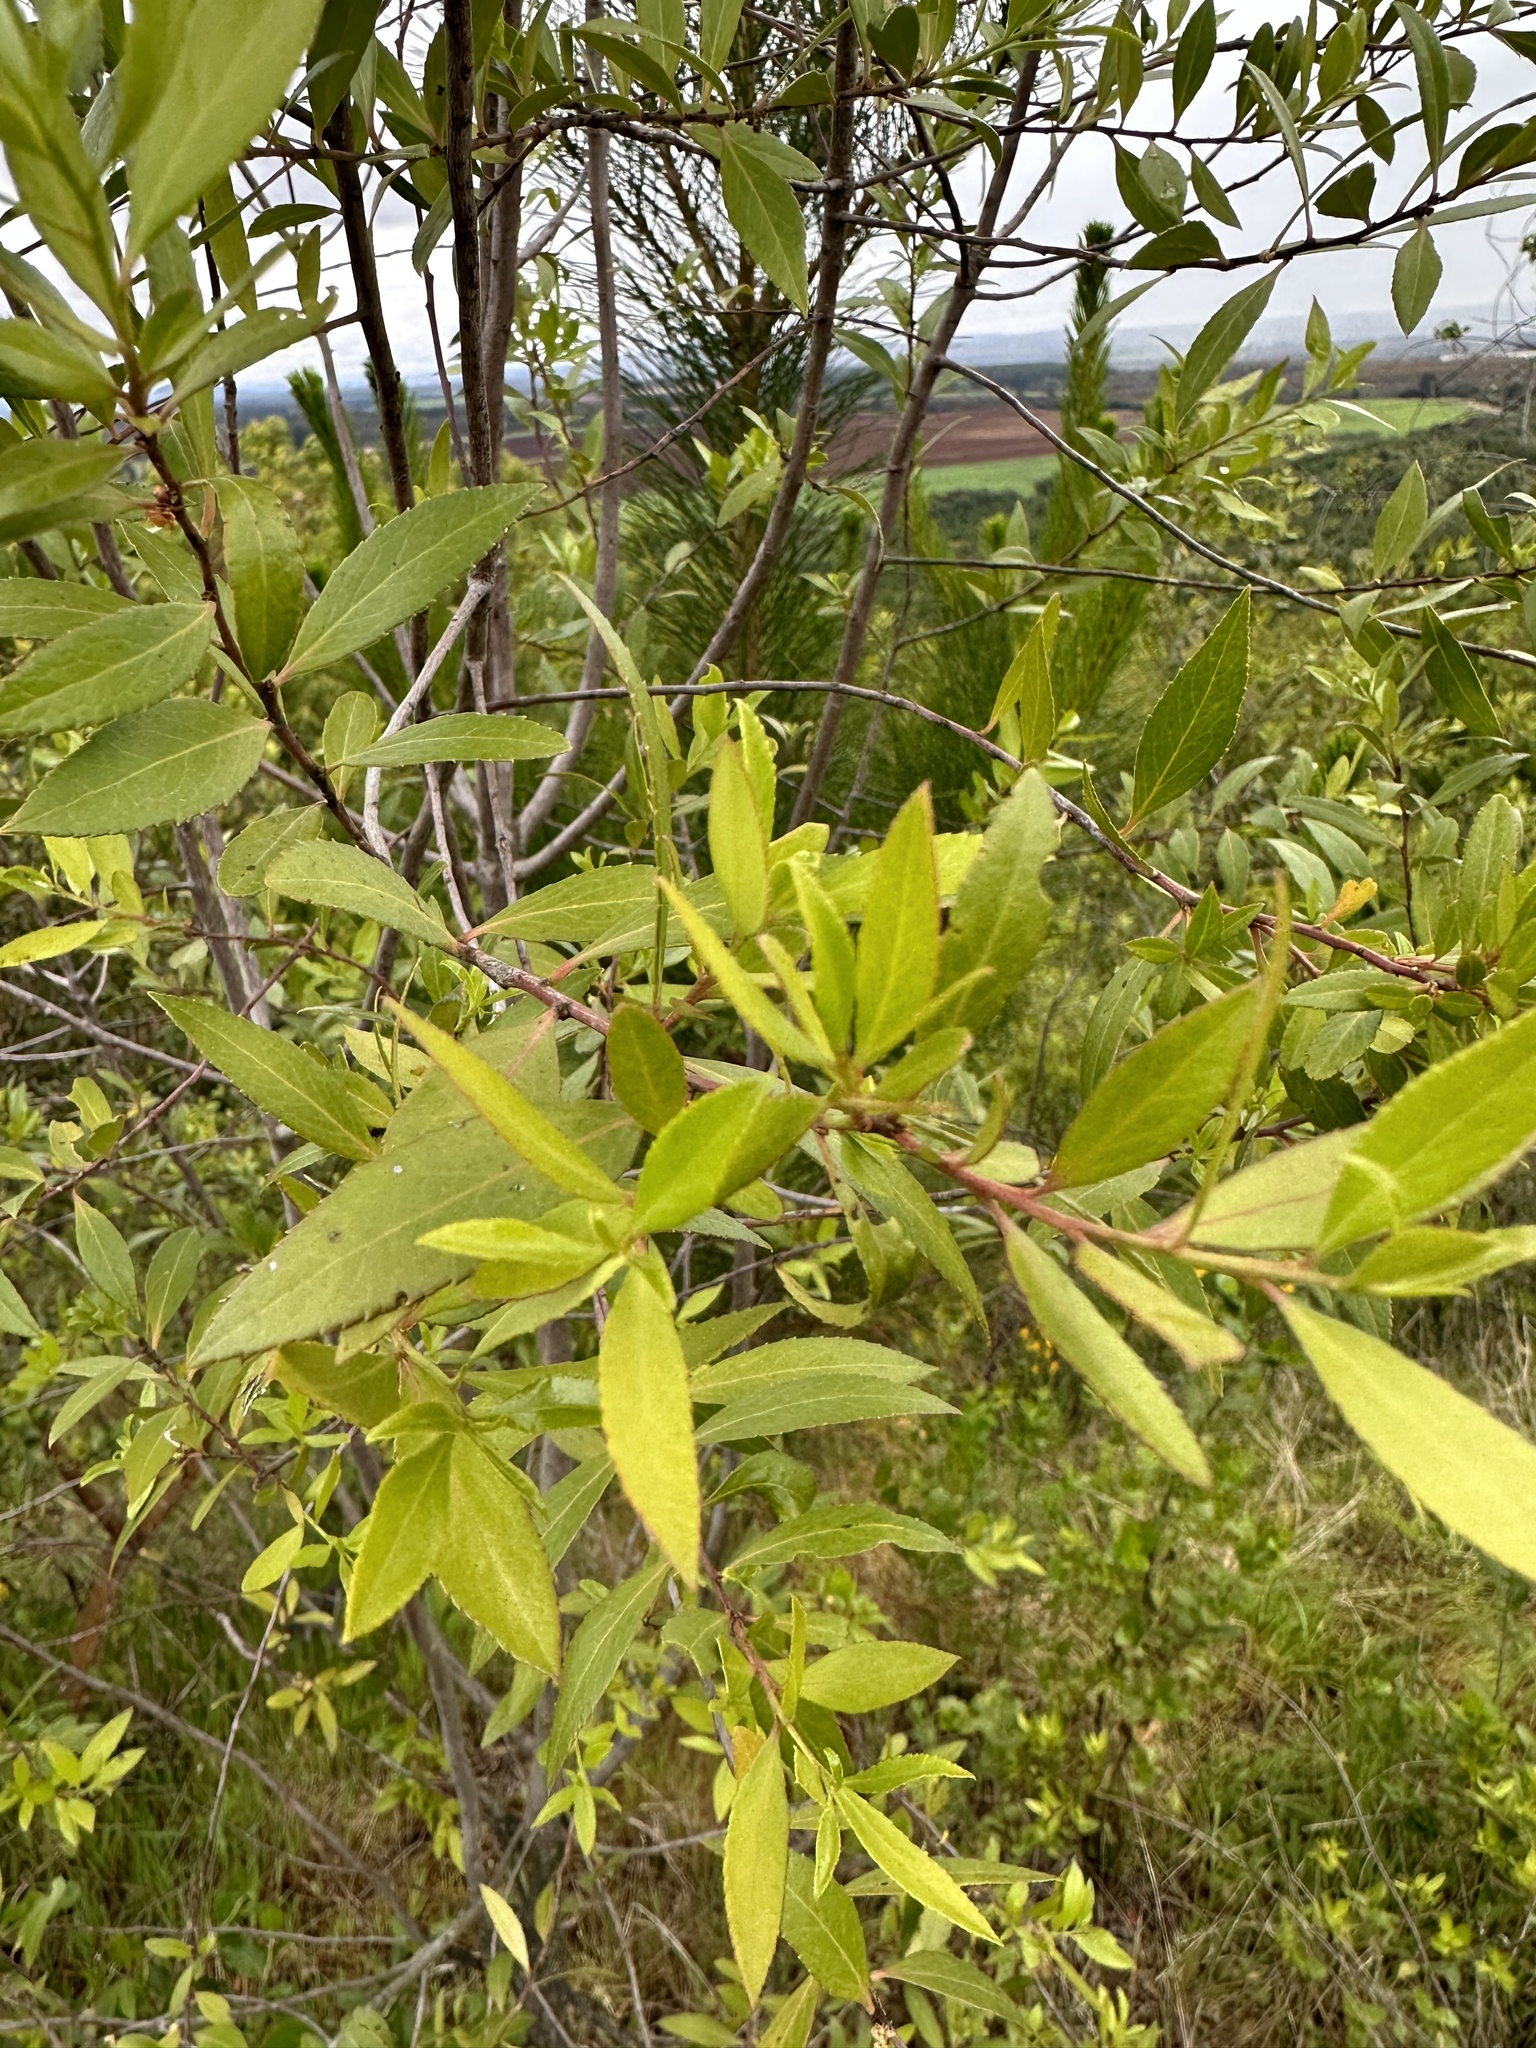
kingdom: Plantae
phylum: Tracheophyta
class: Magnoliopsida
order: Celastrales
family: Celastraceae
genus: Maytenus
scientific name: Maytenus boaria
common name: Mayten
